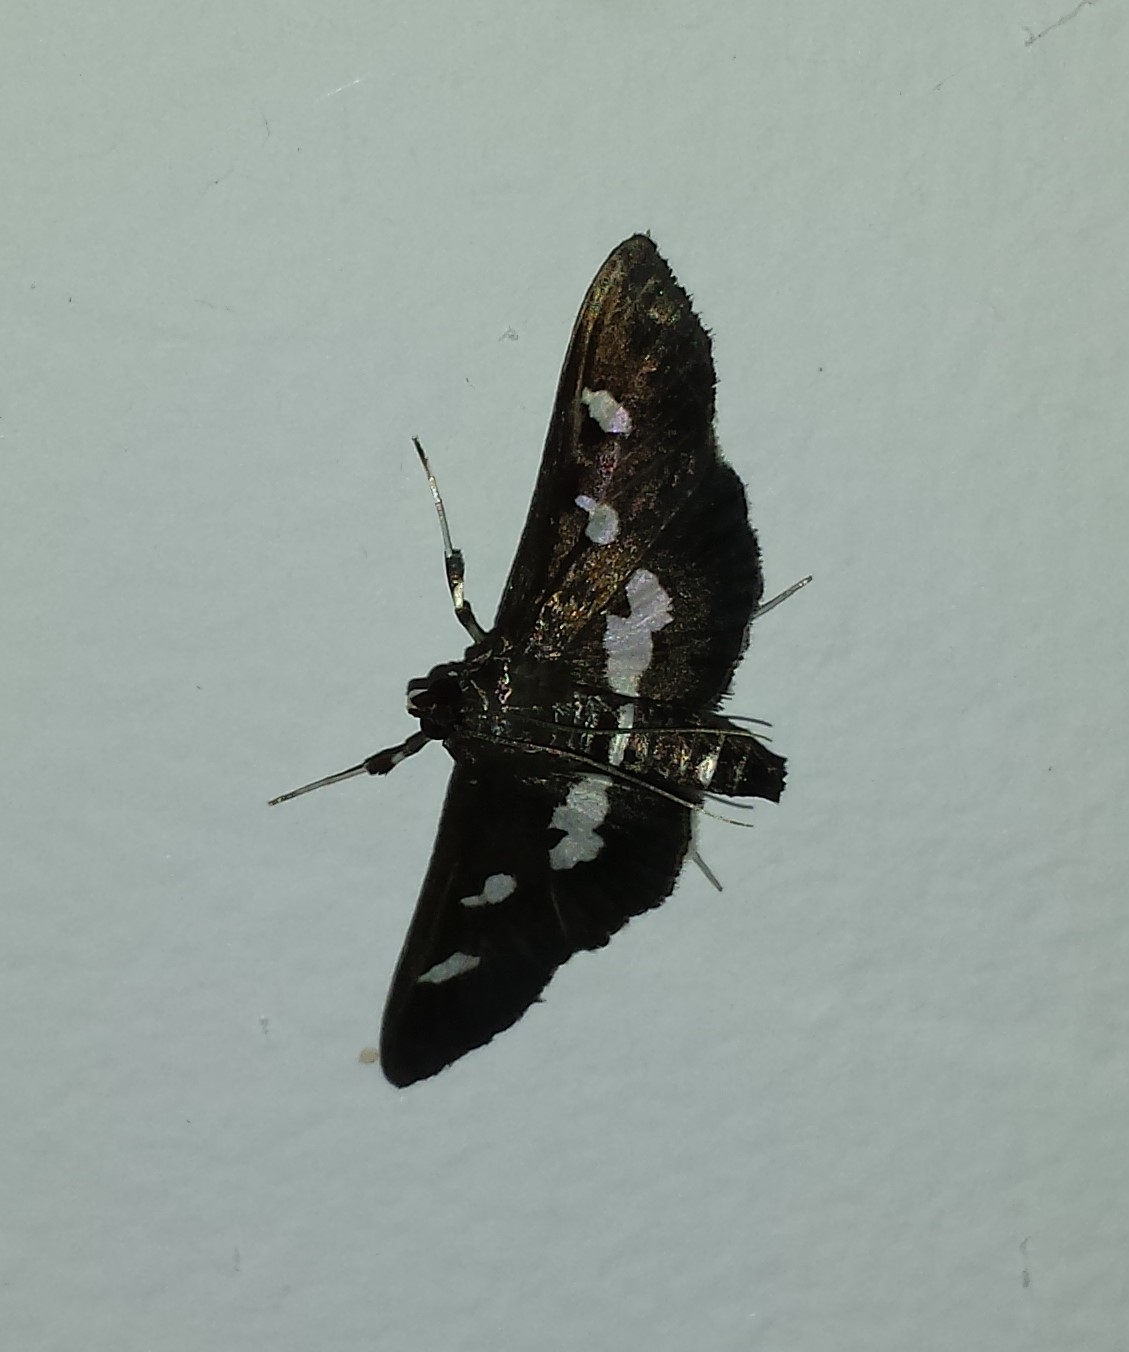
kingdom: Animalia
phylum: Arthropoda
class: Insecta
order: Lepidoptera
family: Crambidae
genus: Desmia
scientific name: Desmia
